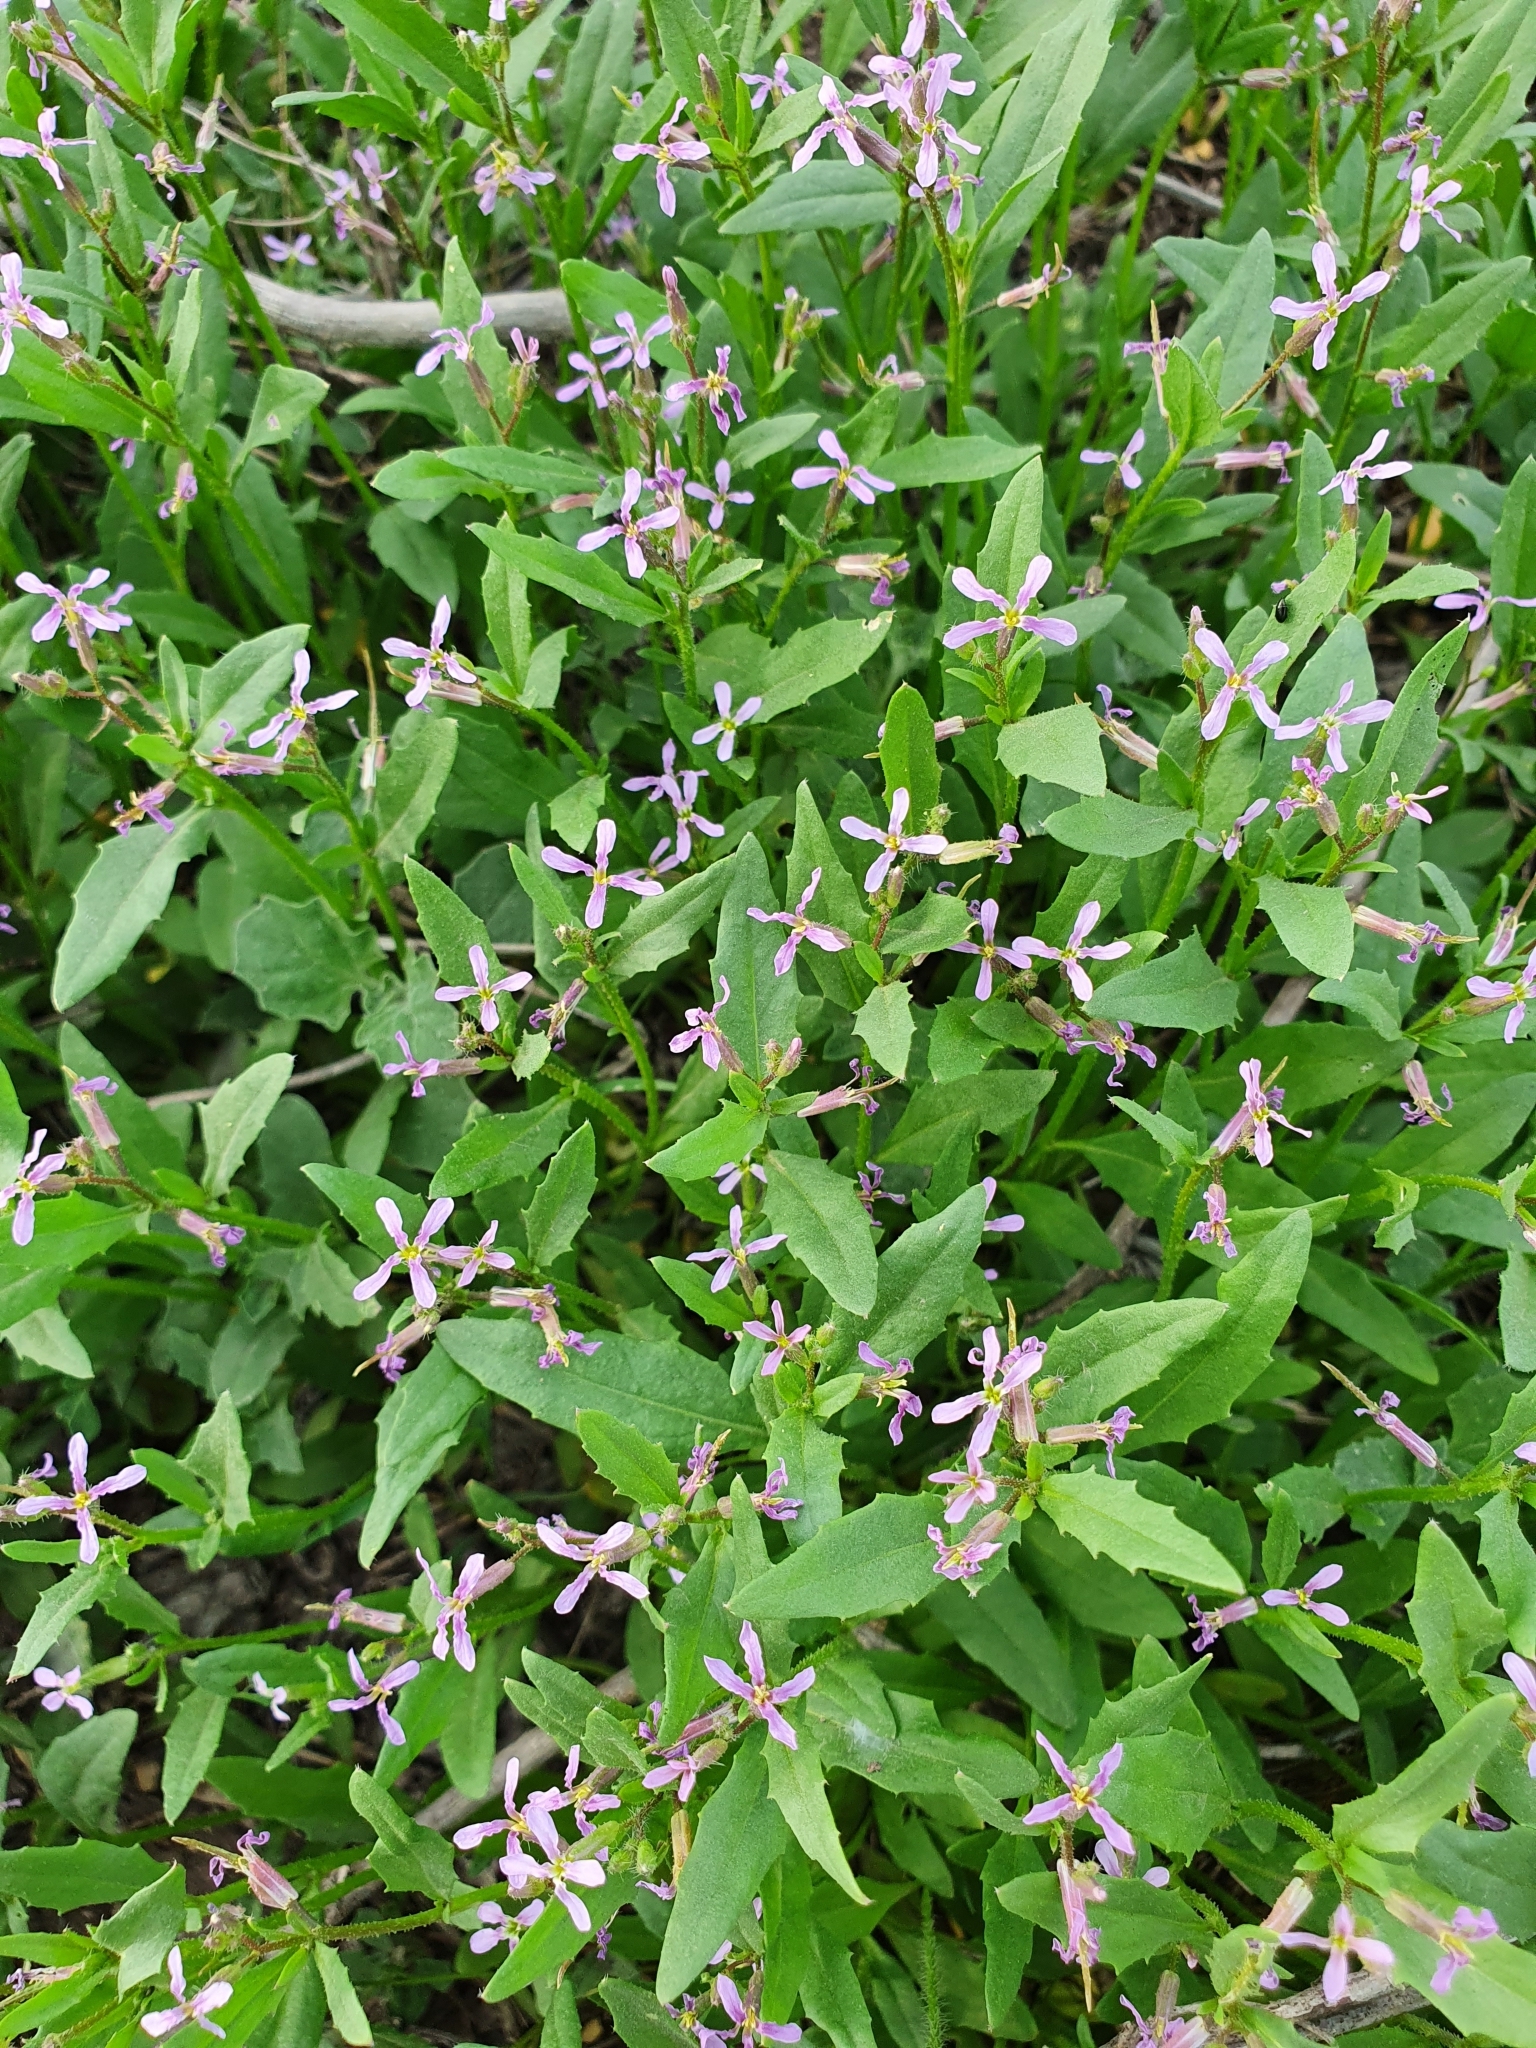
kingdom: Plantae
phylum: Tracheophyta
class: Magnoliopsida
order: Brassicales
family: Brassicaceae
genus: Chorispora
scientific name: Chorispora tenella
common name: Crossflower
